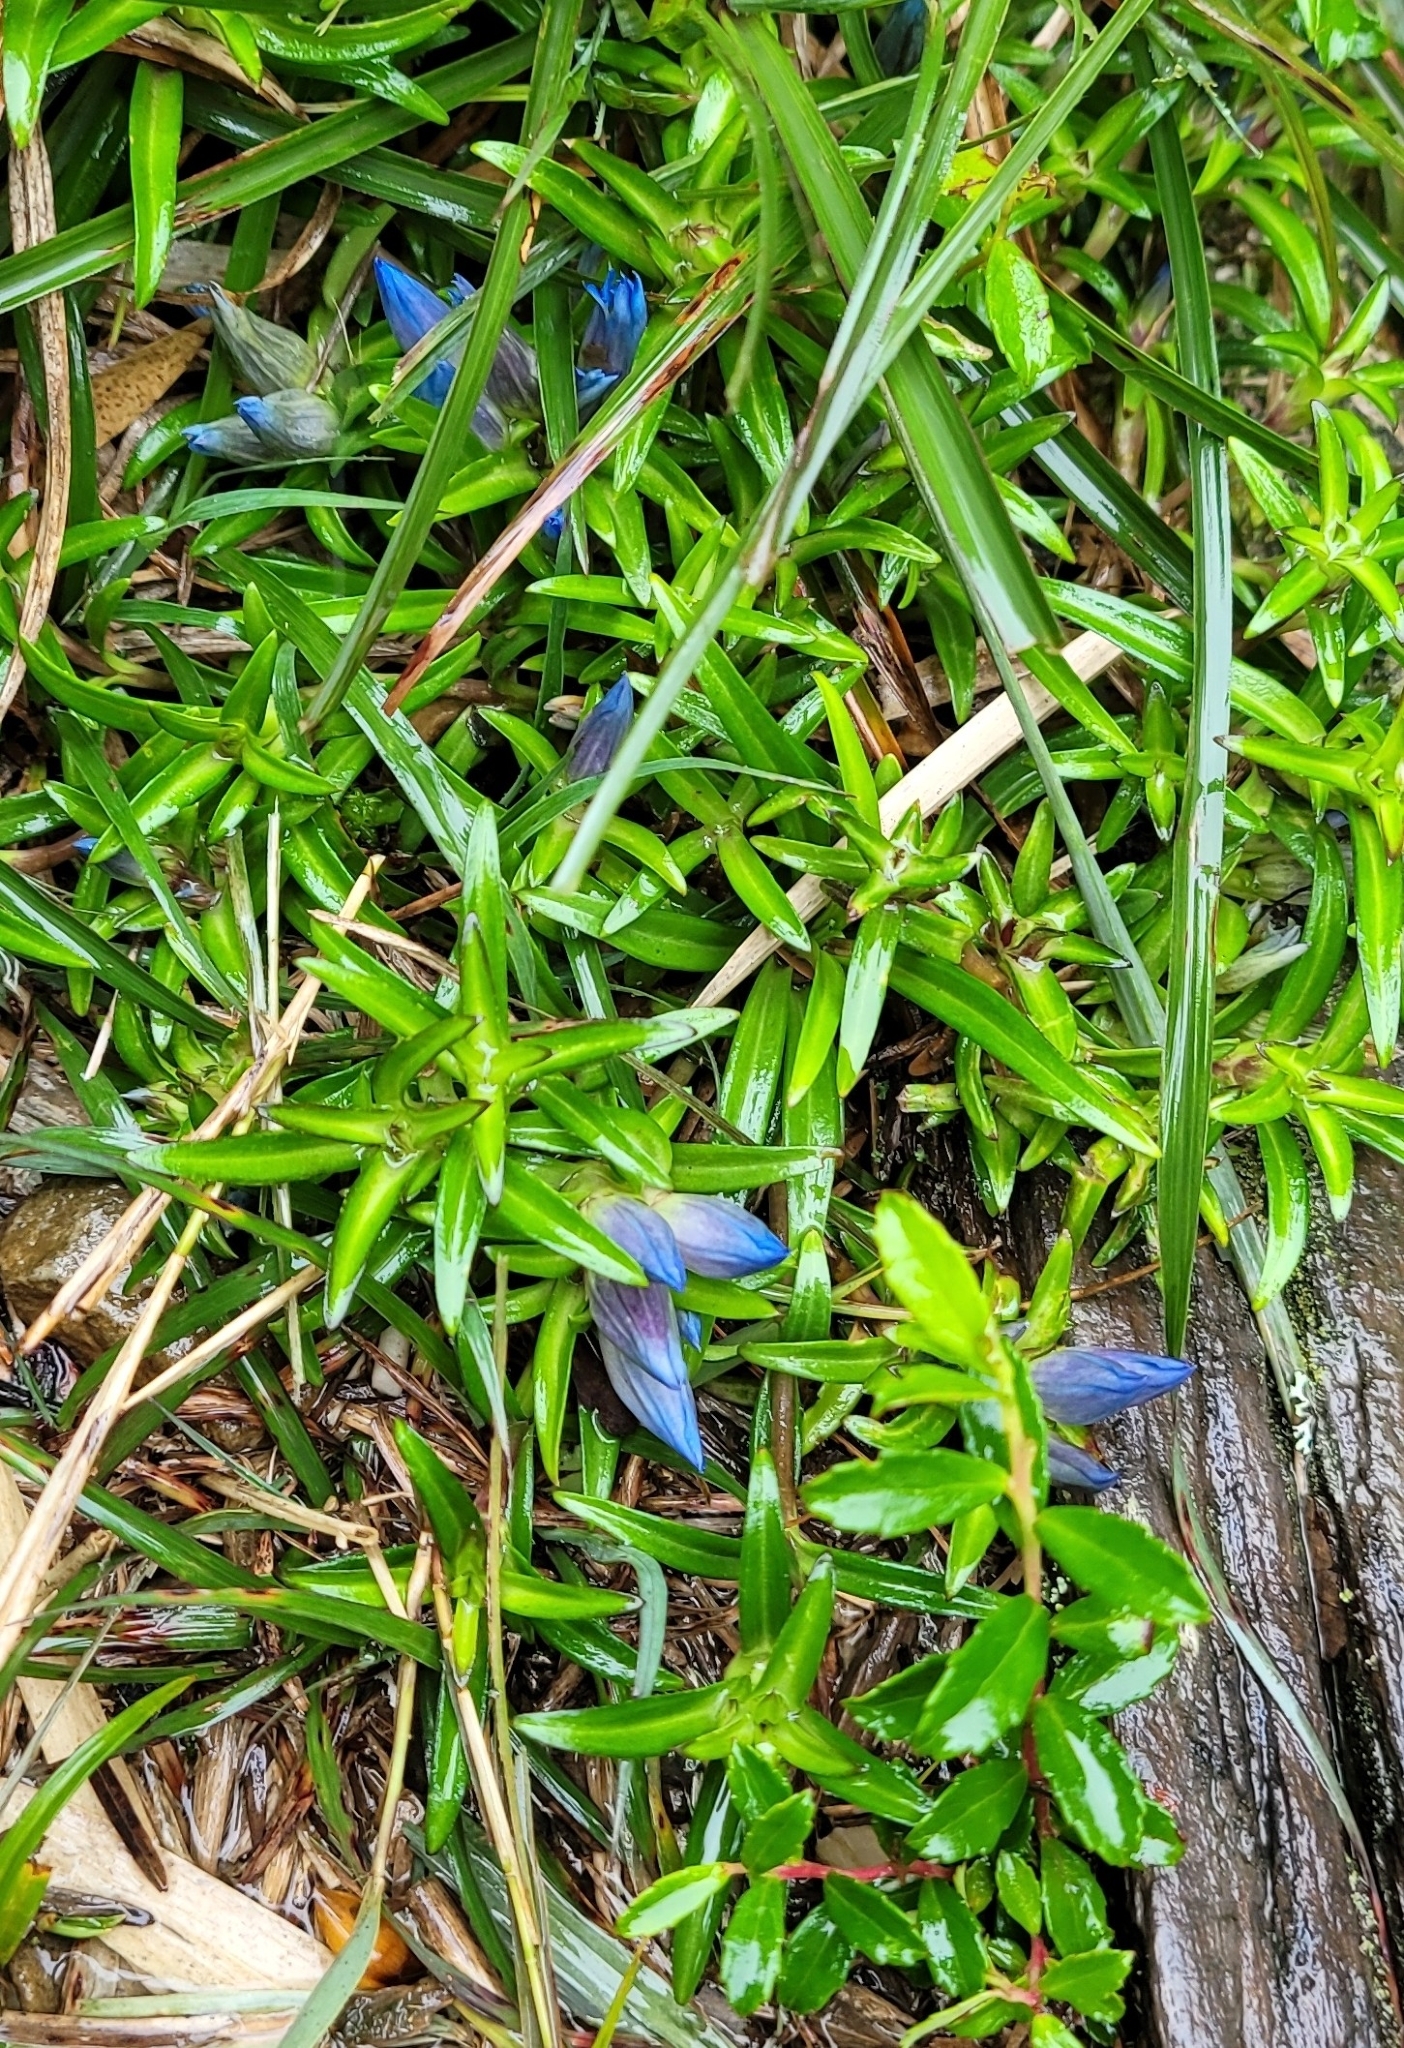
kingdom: Plantae
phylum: Tracheophyta
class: Magnoliopsida
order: Gentianales
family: Gentianaceae
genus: Gentiana
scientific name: Gentiana davidii
